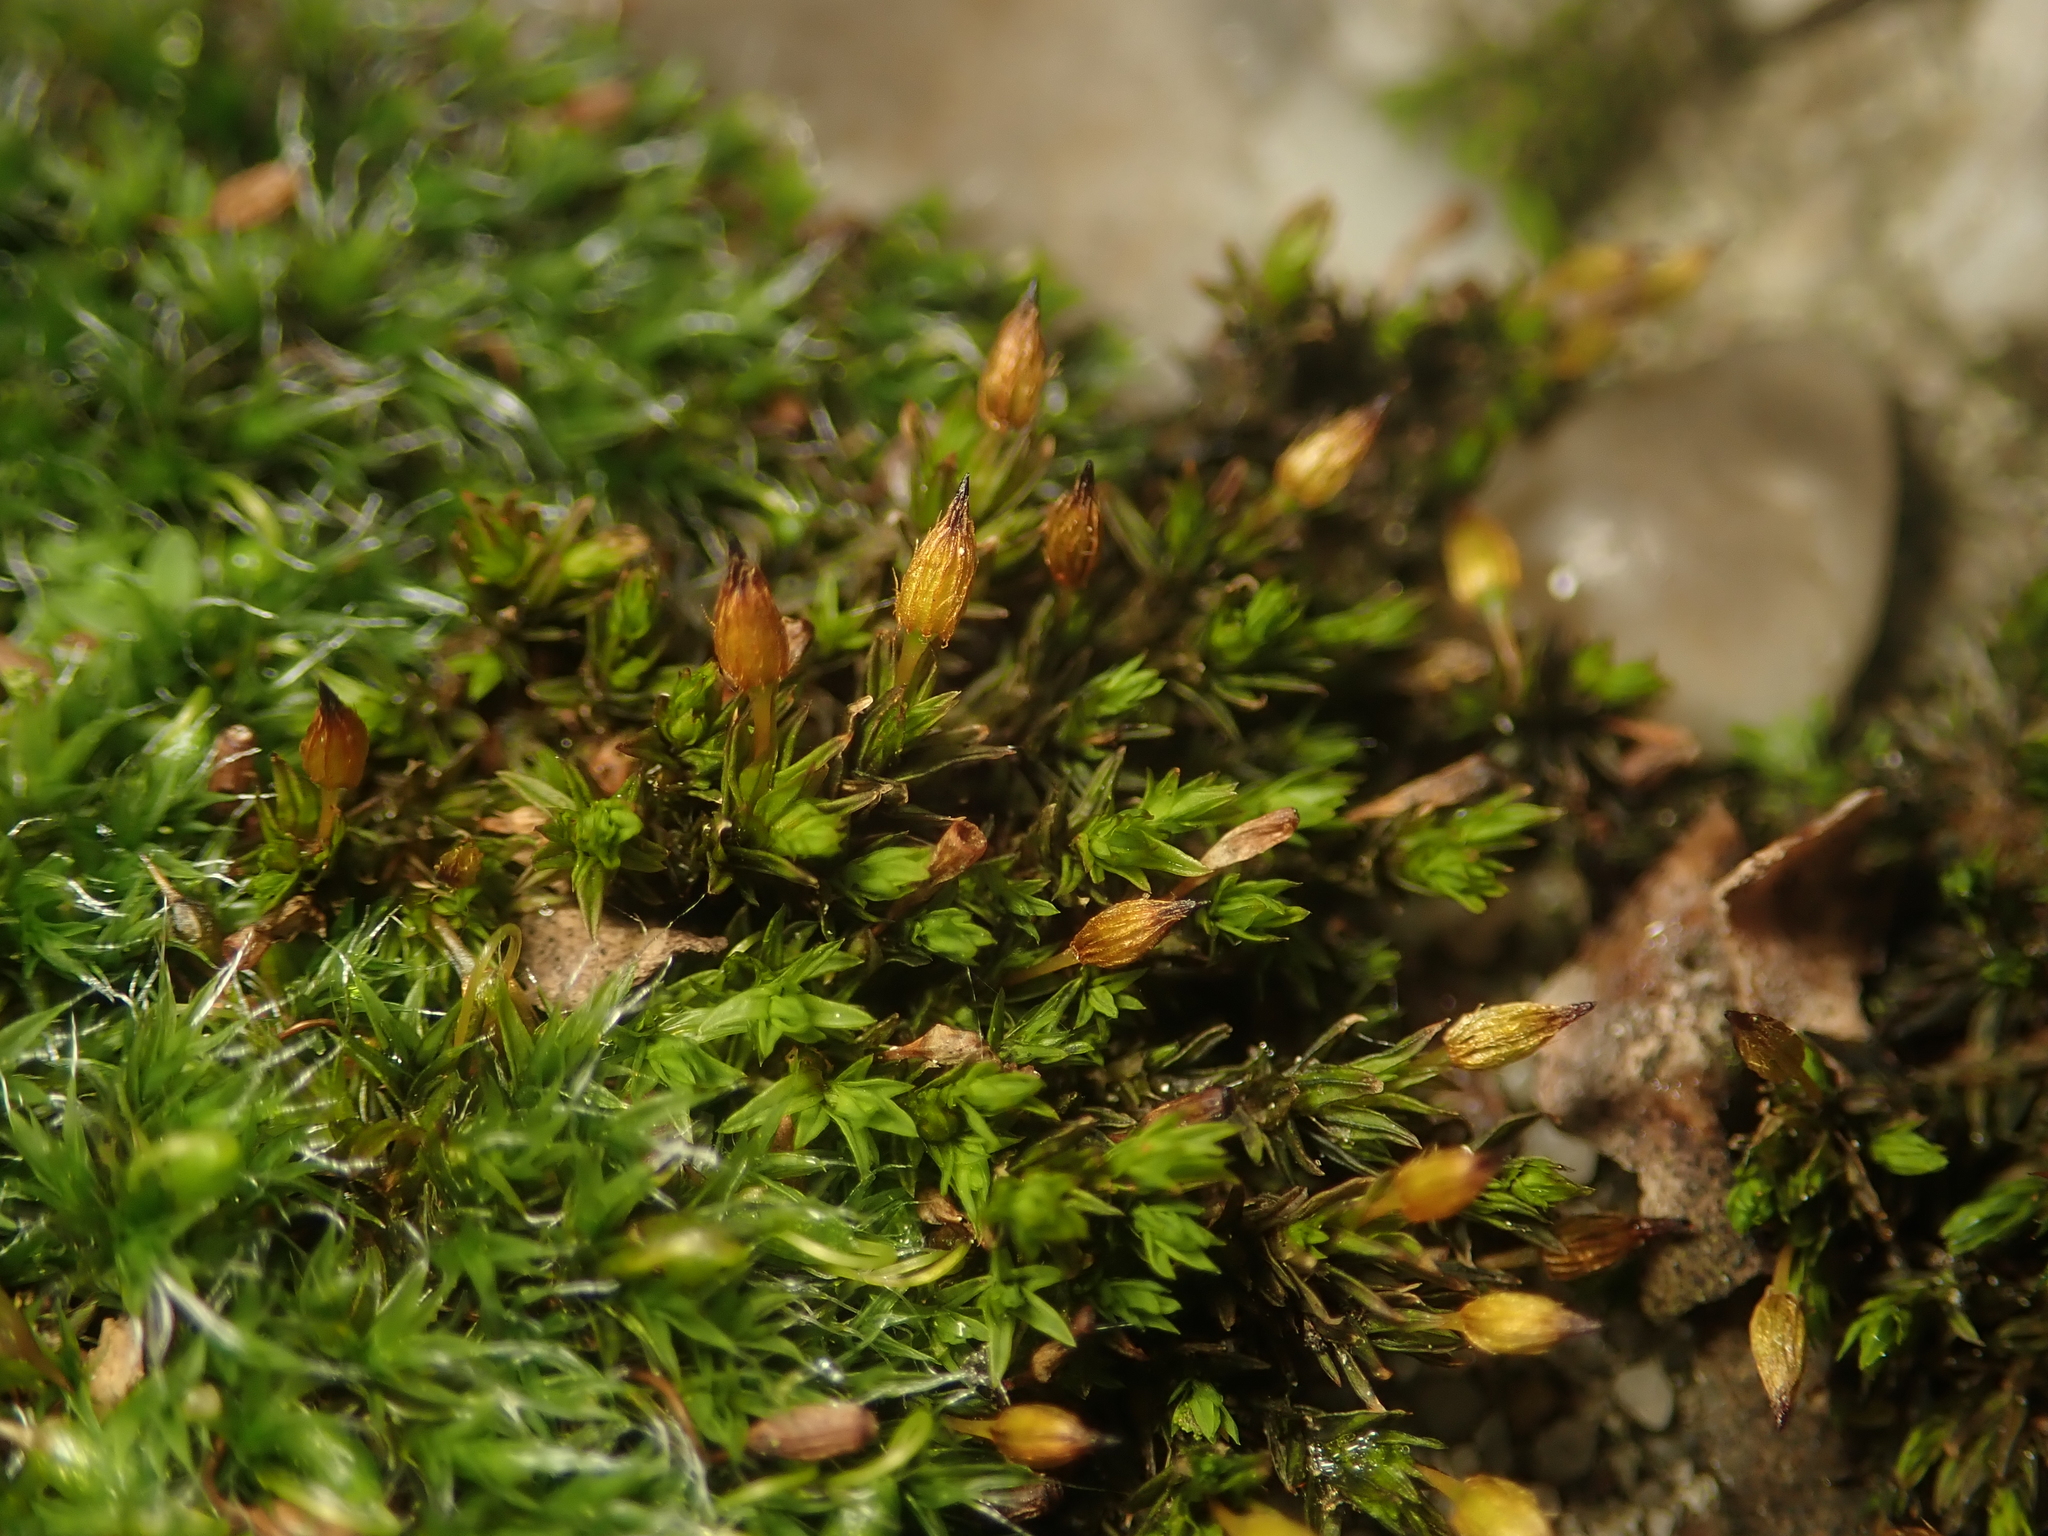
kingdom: Plantae
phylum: Bryophyta
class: Bryopsida
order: Orthotrichales
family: Orthotrichaceae
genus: Orthotrichum
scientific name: Orthotrichum anomalum
